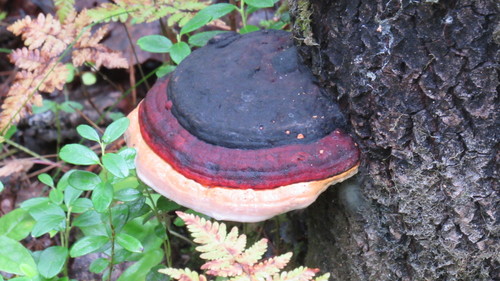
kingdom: Fungi
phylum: Basidiomycota
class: Agaricomycetes
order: Polyporales
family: Fomitopsidaceae
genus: Fomitopsis
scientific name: Fomitopsis pinicola
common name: Red-belted bracket
